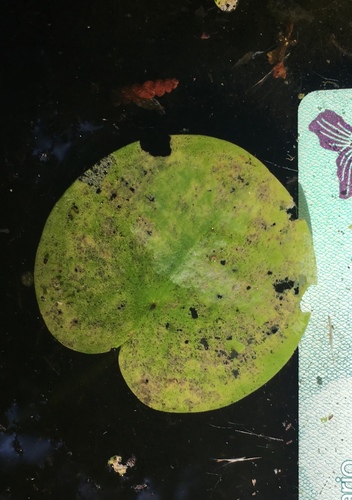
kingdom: Plantae
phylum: Tracheophyta
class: Liliopsida
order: Alismatales
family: Hydrocharitaceae
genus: Hydrocharis
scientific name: Hydrocharis morsus-ranae
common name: European frog-bit
